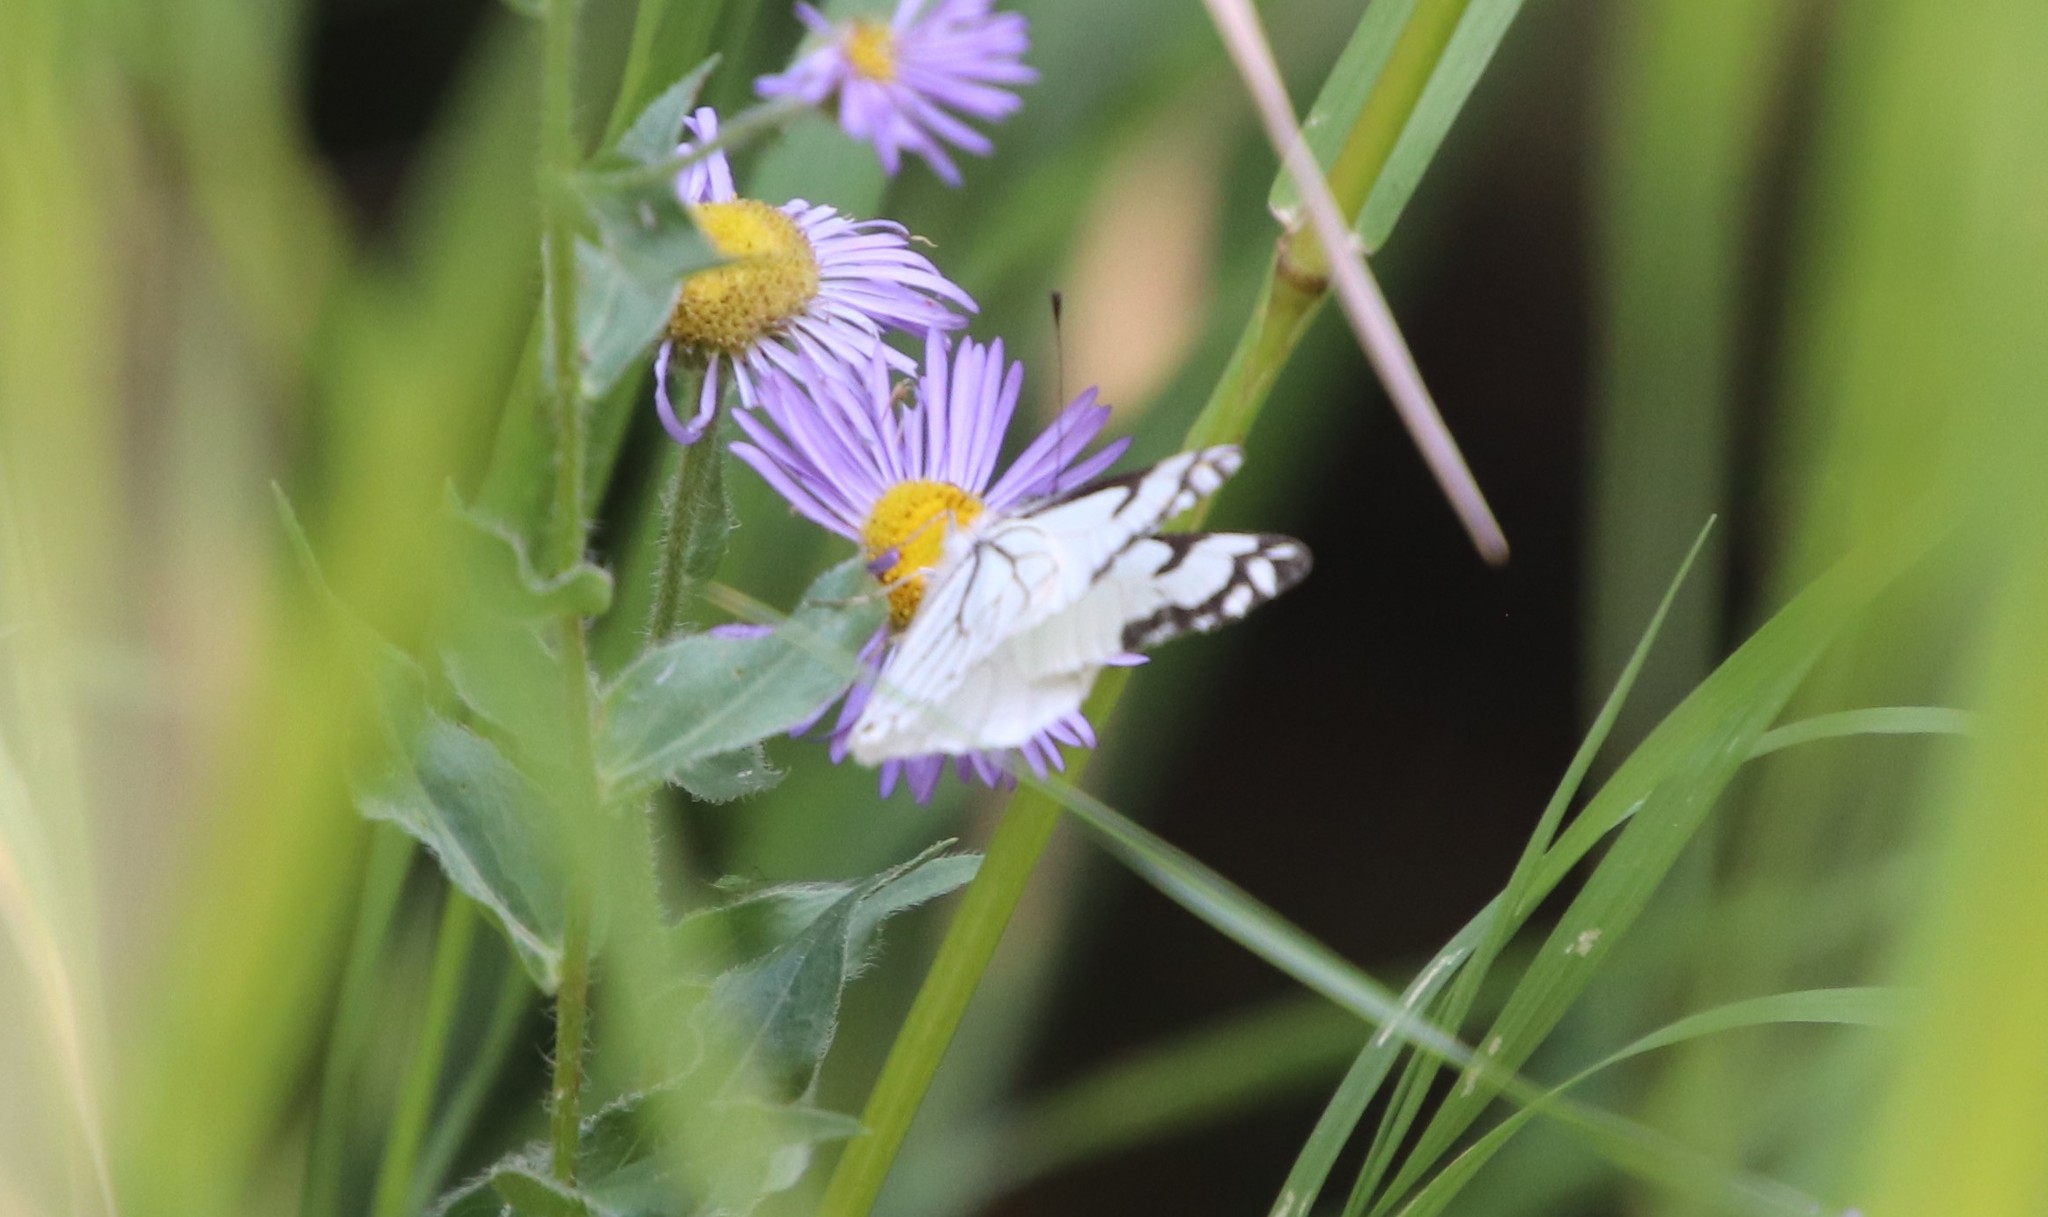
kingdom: Animalia
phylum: Arthropoda
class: Insecta
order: Lepidoptera
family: Pieridae
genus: Neophasia
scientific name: Neophasia menapia
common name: Pine white
